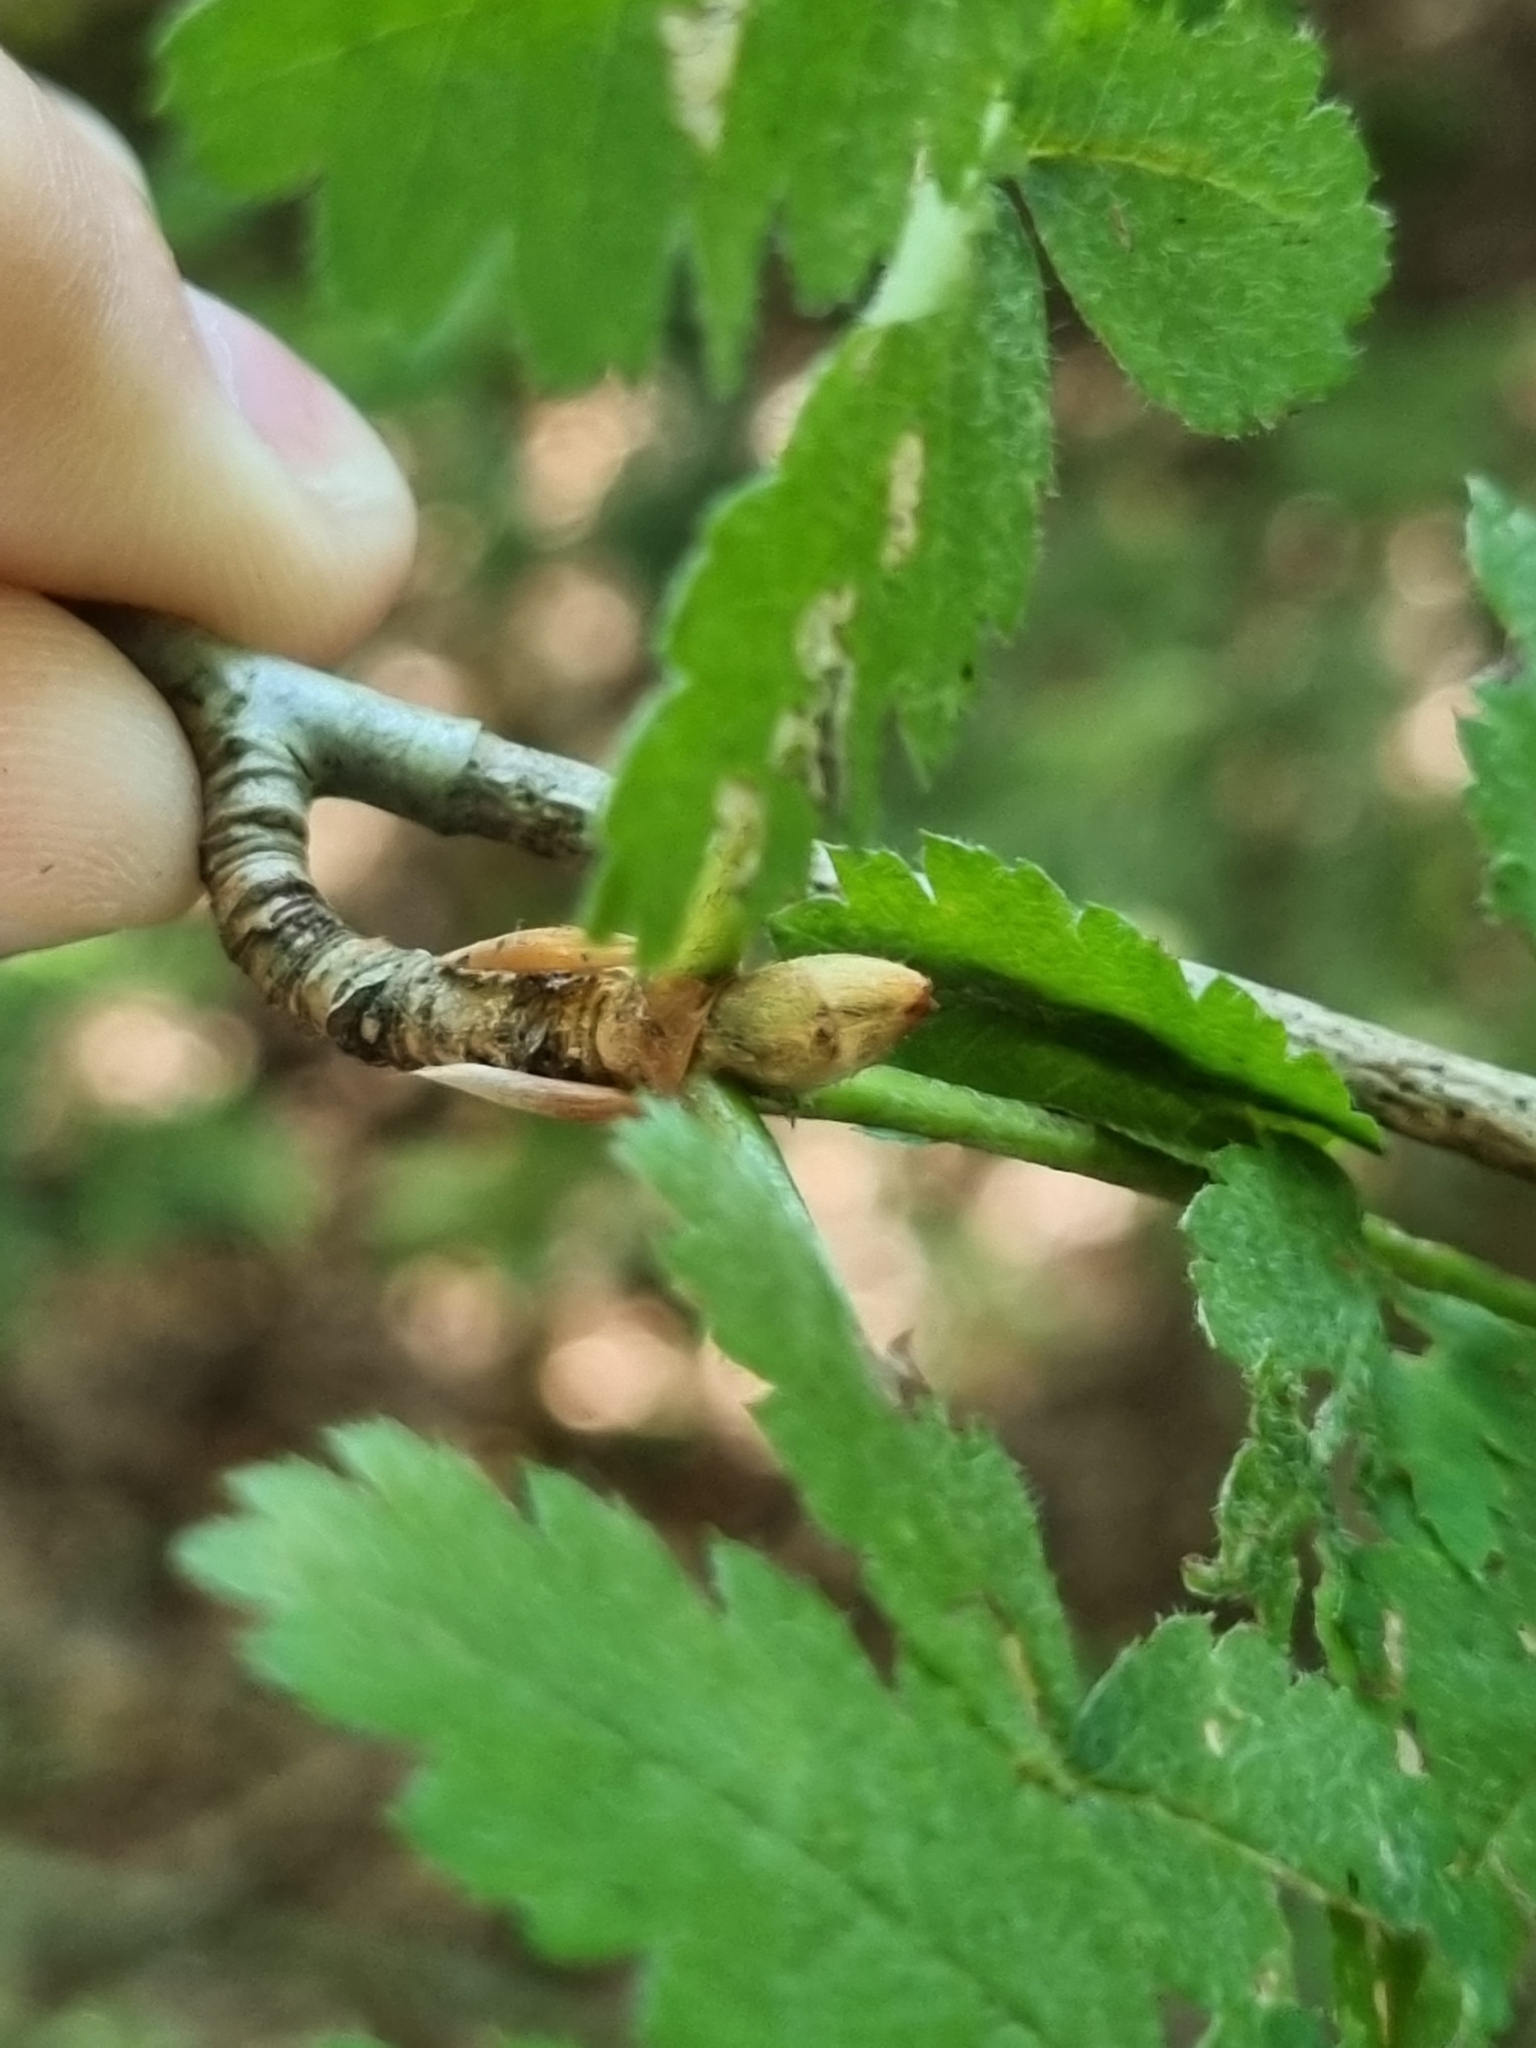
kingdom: Plantae
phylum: Tracheophyta
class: Magnoliopsida
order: Rosales
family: Rosaceae
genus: Sorbus
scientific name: Sorbus aucuparia
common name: Rowan
